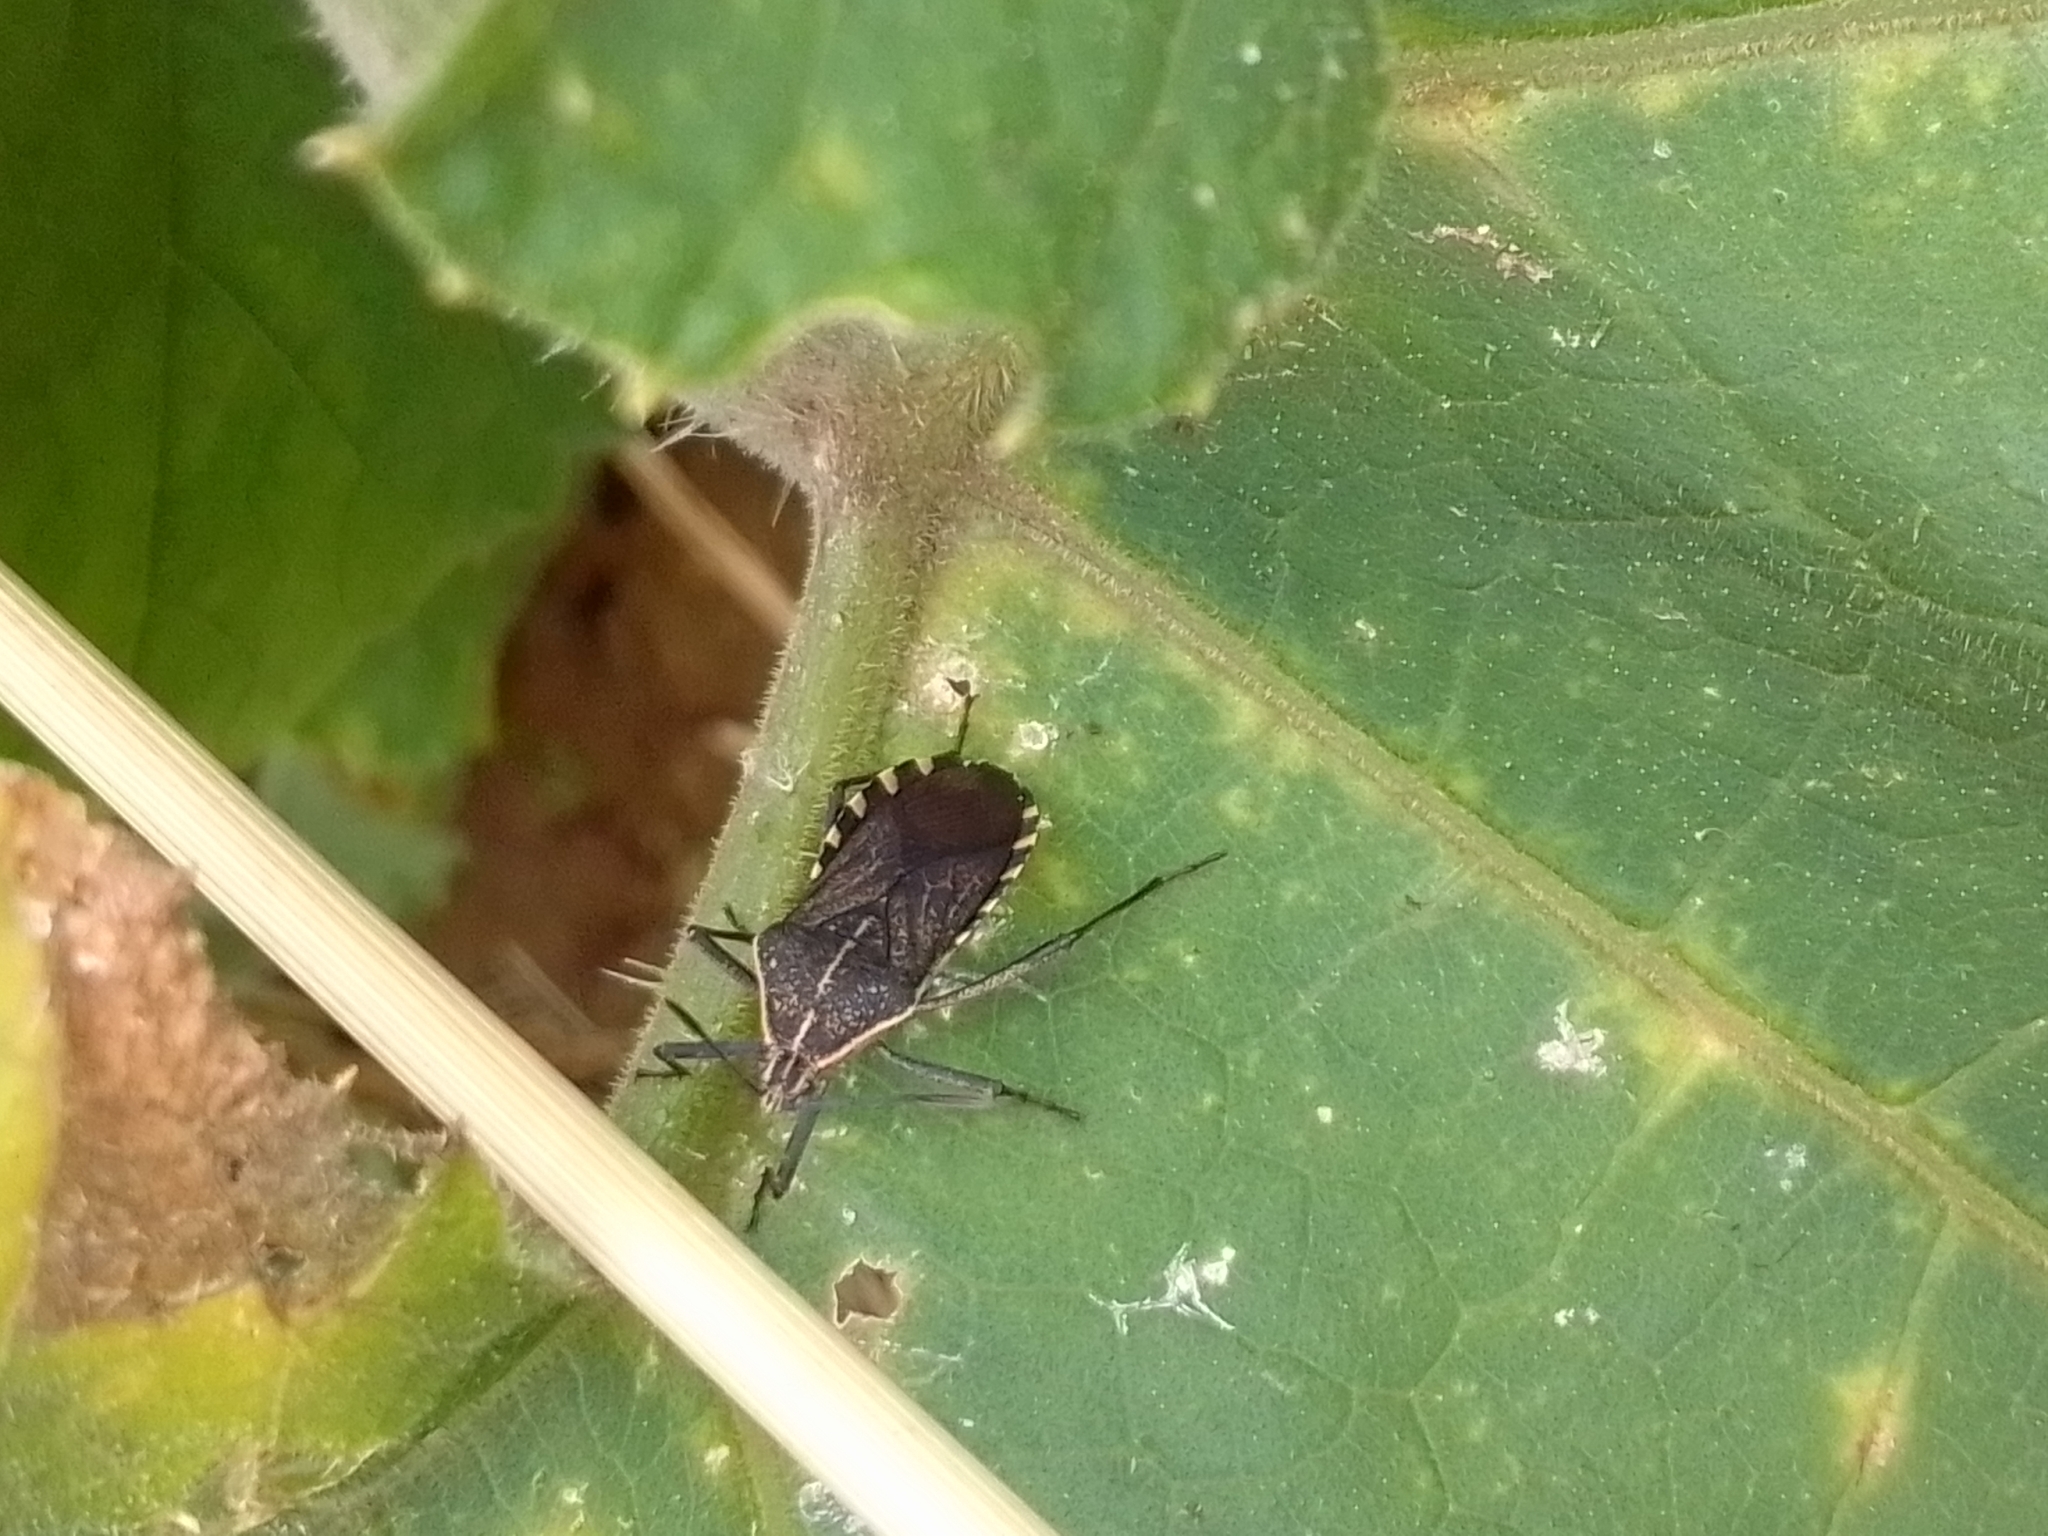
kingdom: Animalia
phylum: Arthropoda
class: Insecta
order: Hemiptera
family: Coreidae
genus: Anasa
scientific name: Anasa trilineata
